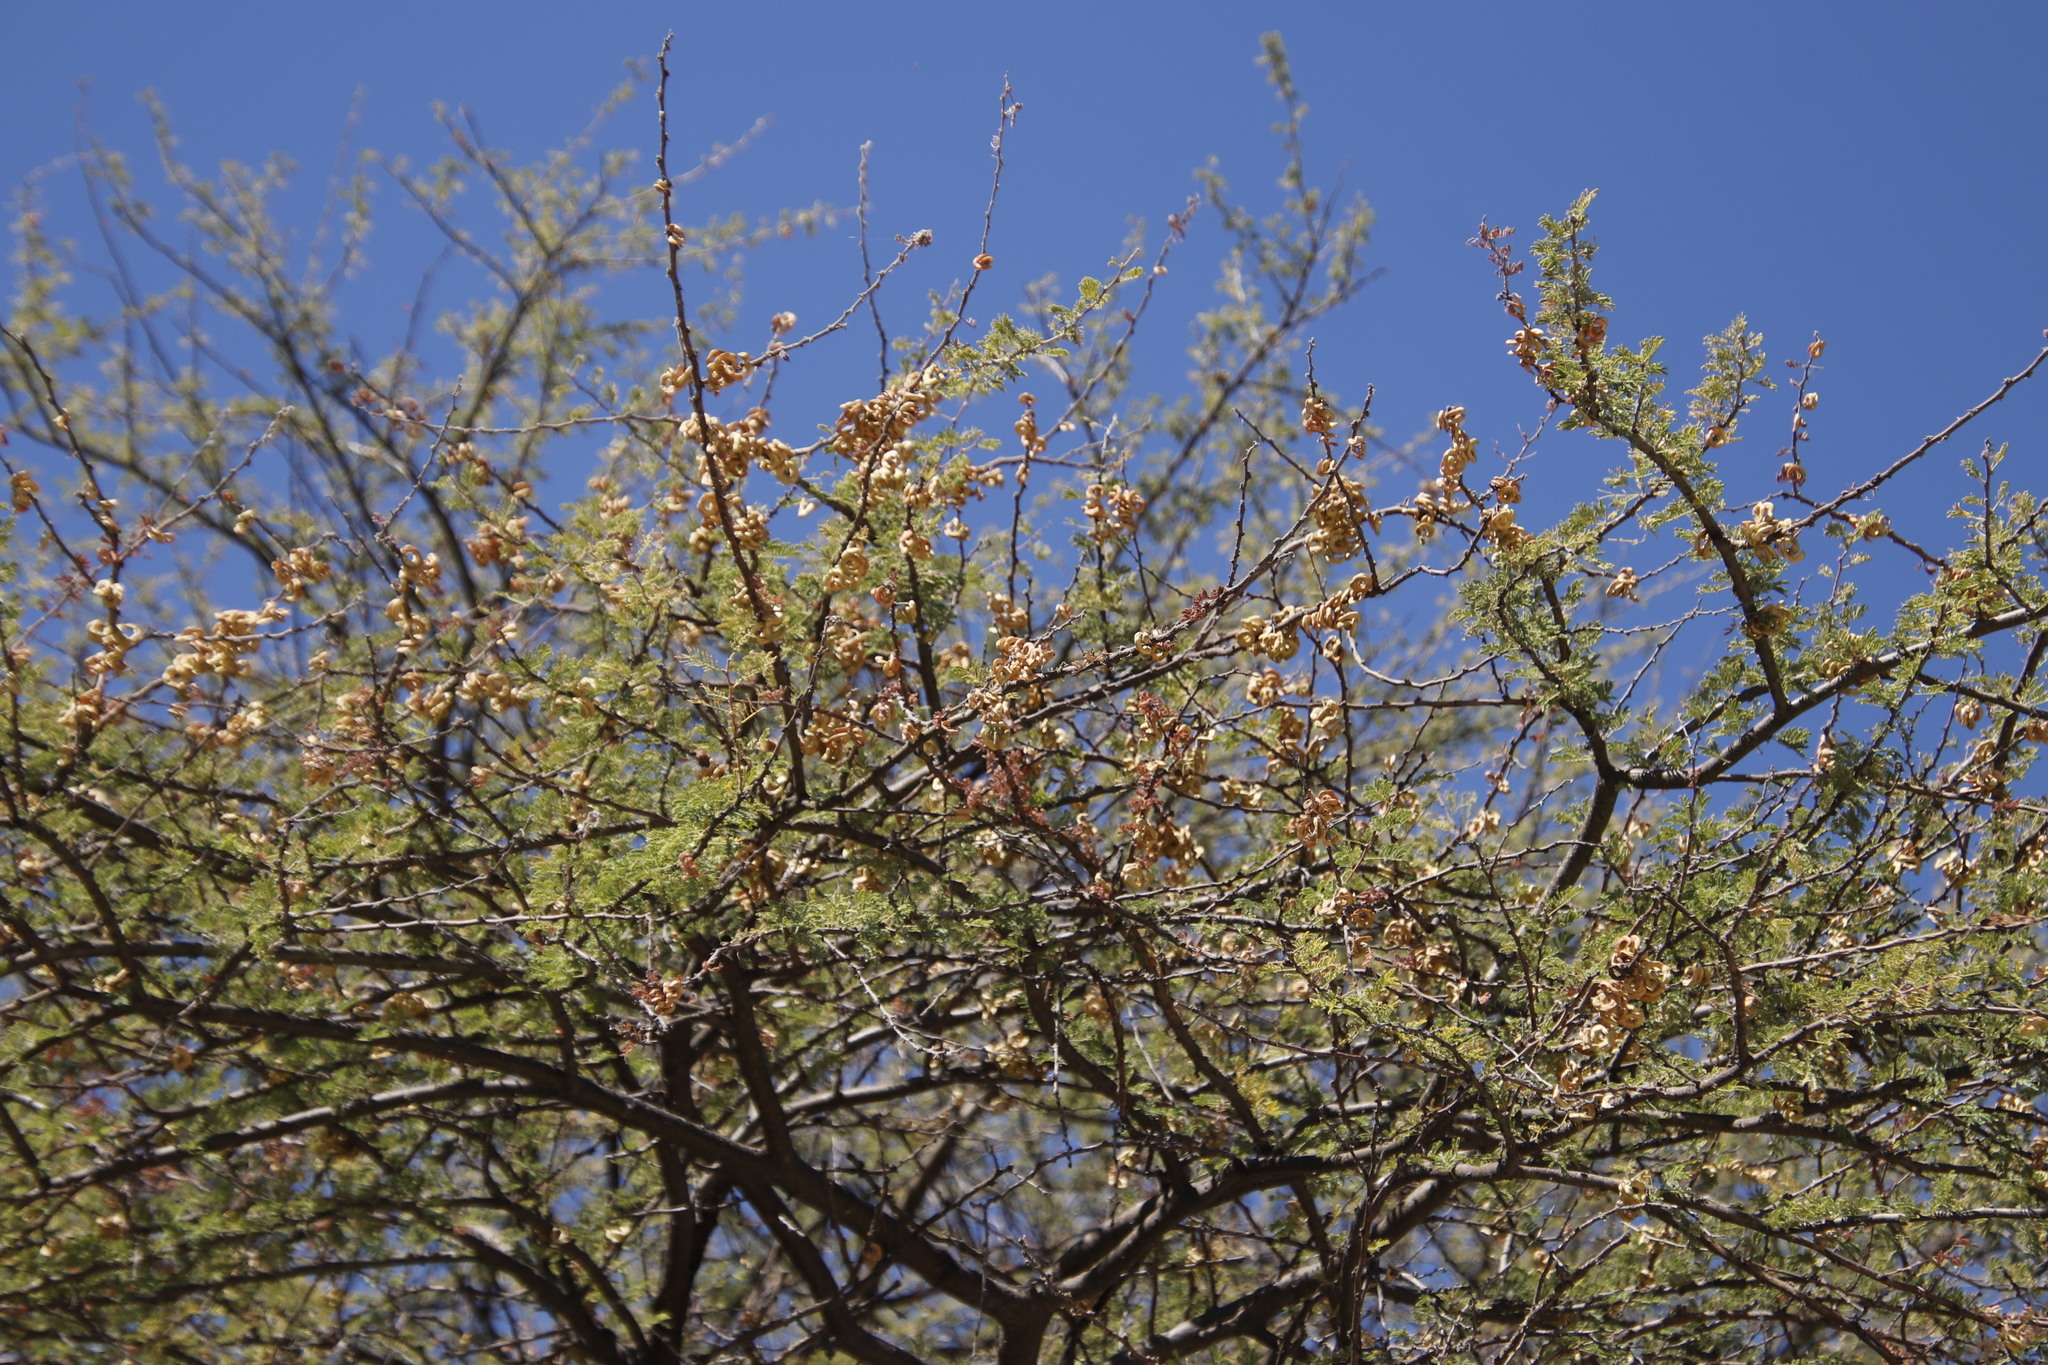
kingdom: Plantae
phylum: Tracheophyta
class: Magnoliopsida
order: Fabales
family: Fabaceae
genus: Vachellia
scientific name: Vachellia tortilis
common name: Umbrella thorn acacia
